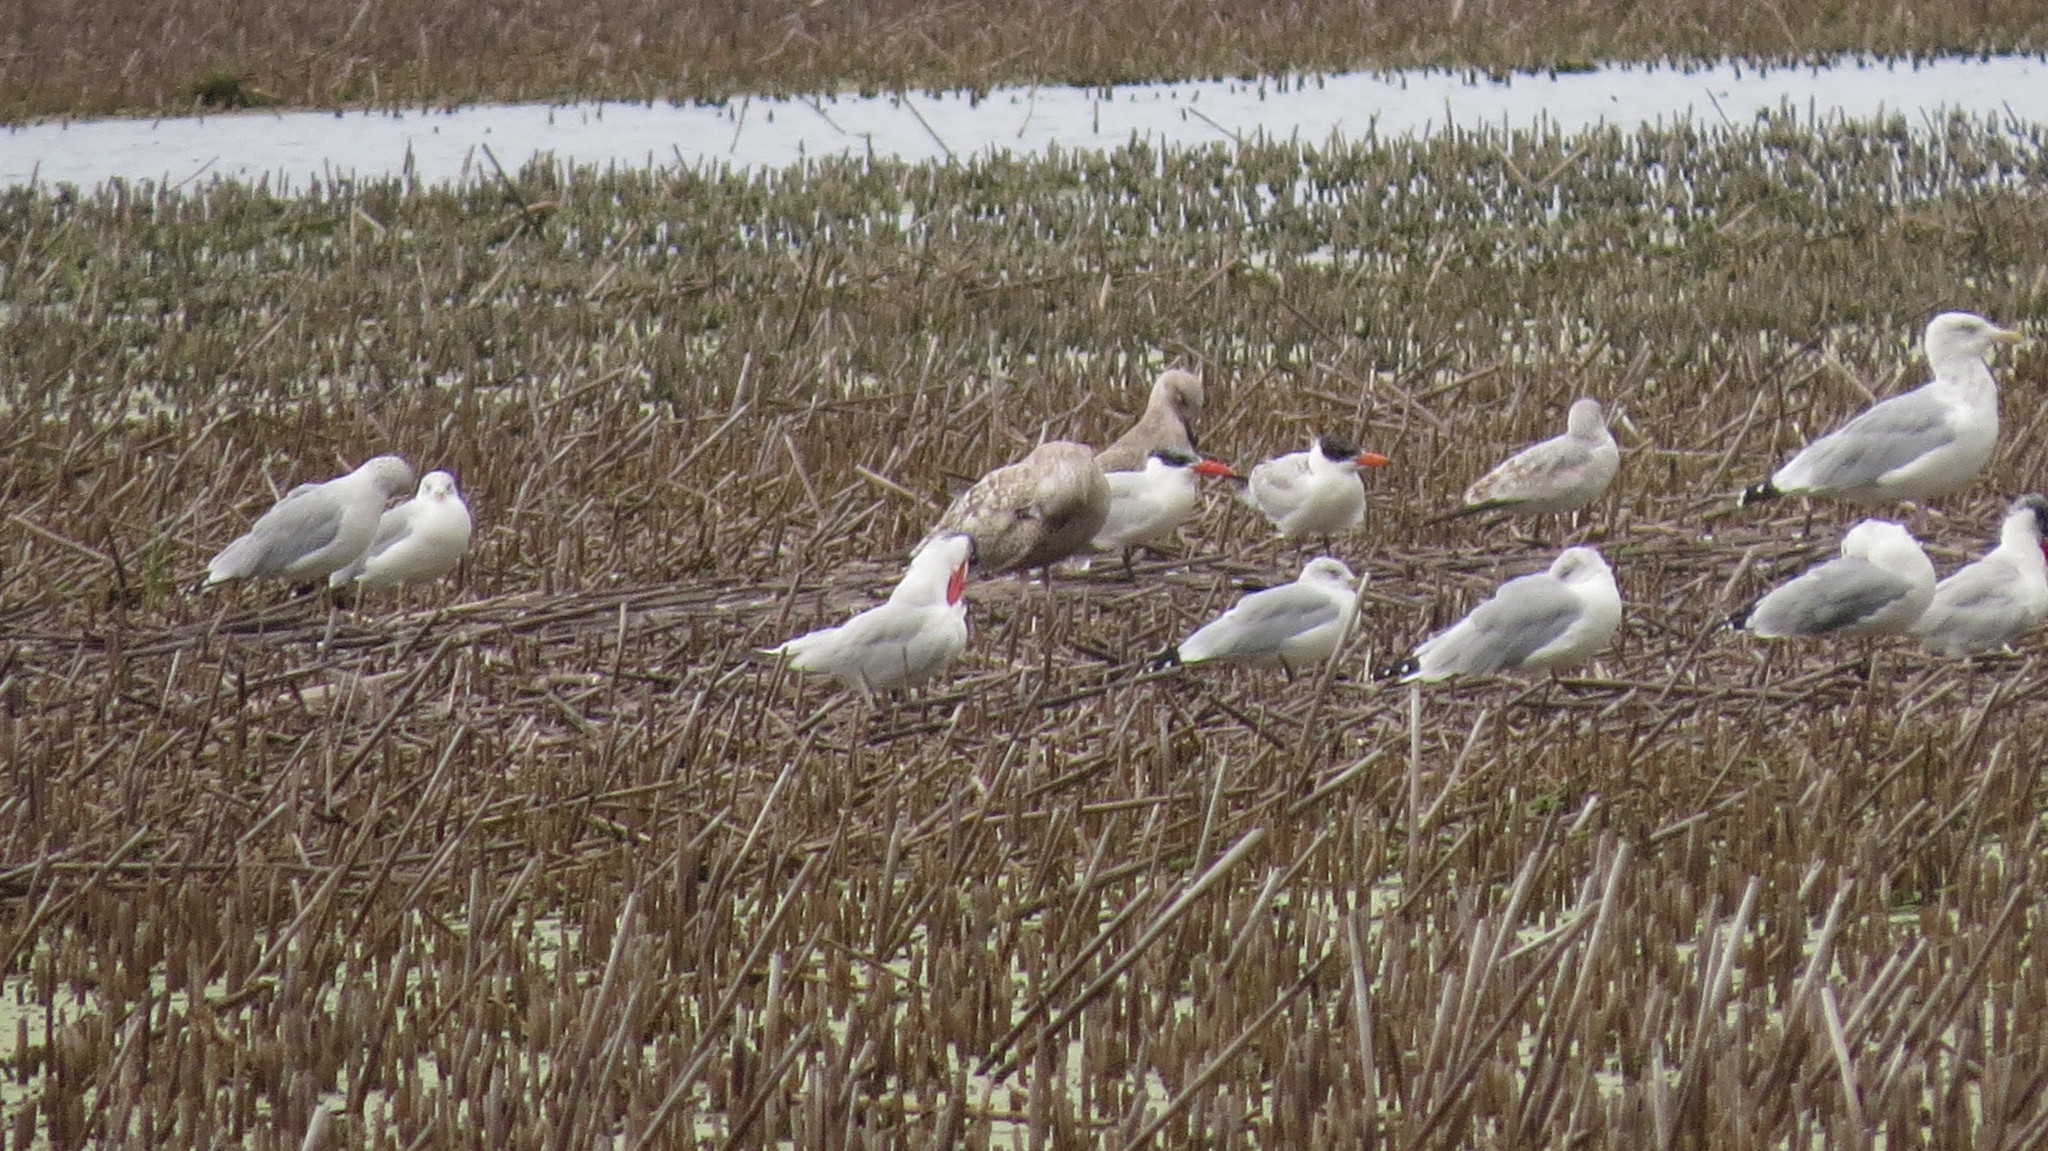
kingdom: Animalia
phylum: Chordata
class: Aves
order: Charadriiformes
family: Laridae
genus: Larus
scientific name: Larus argentatus
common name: Herring gull
